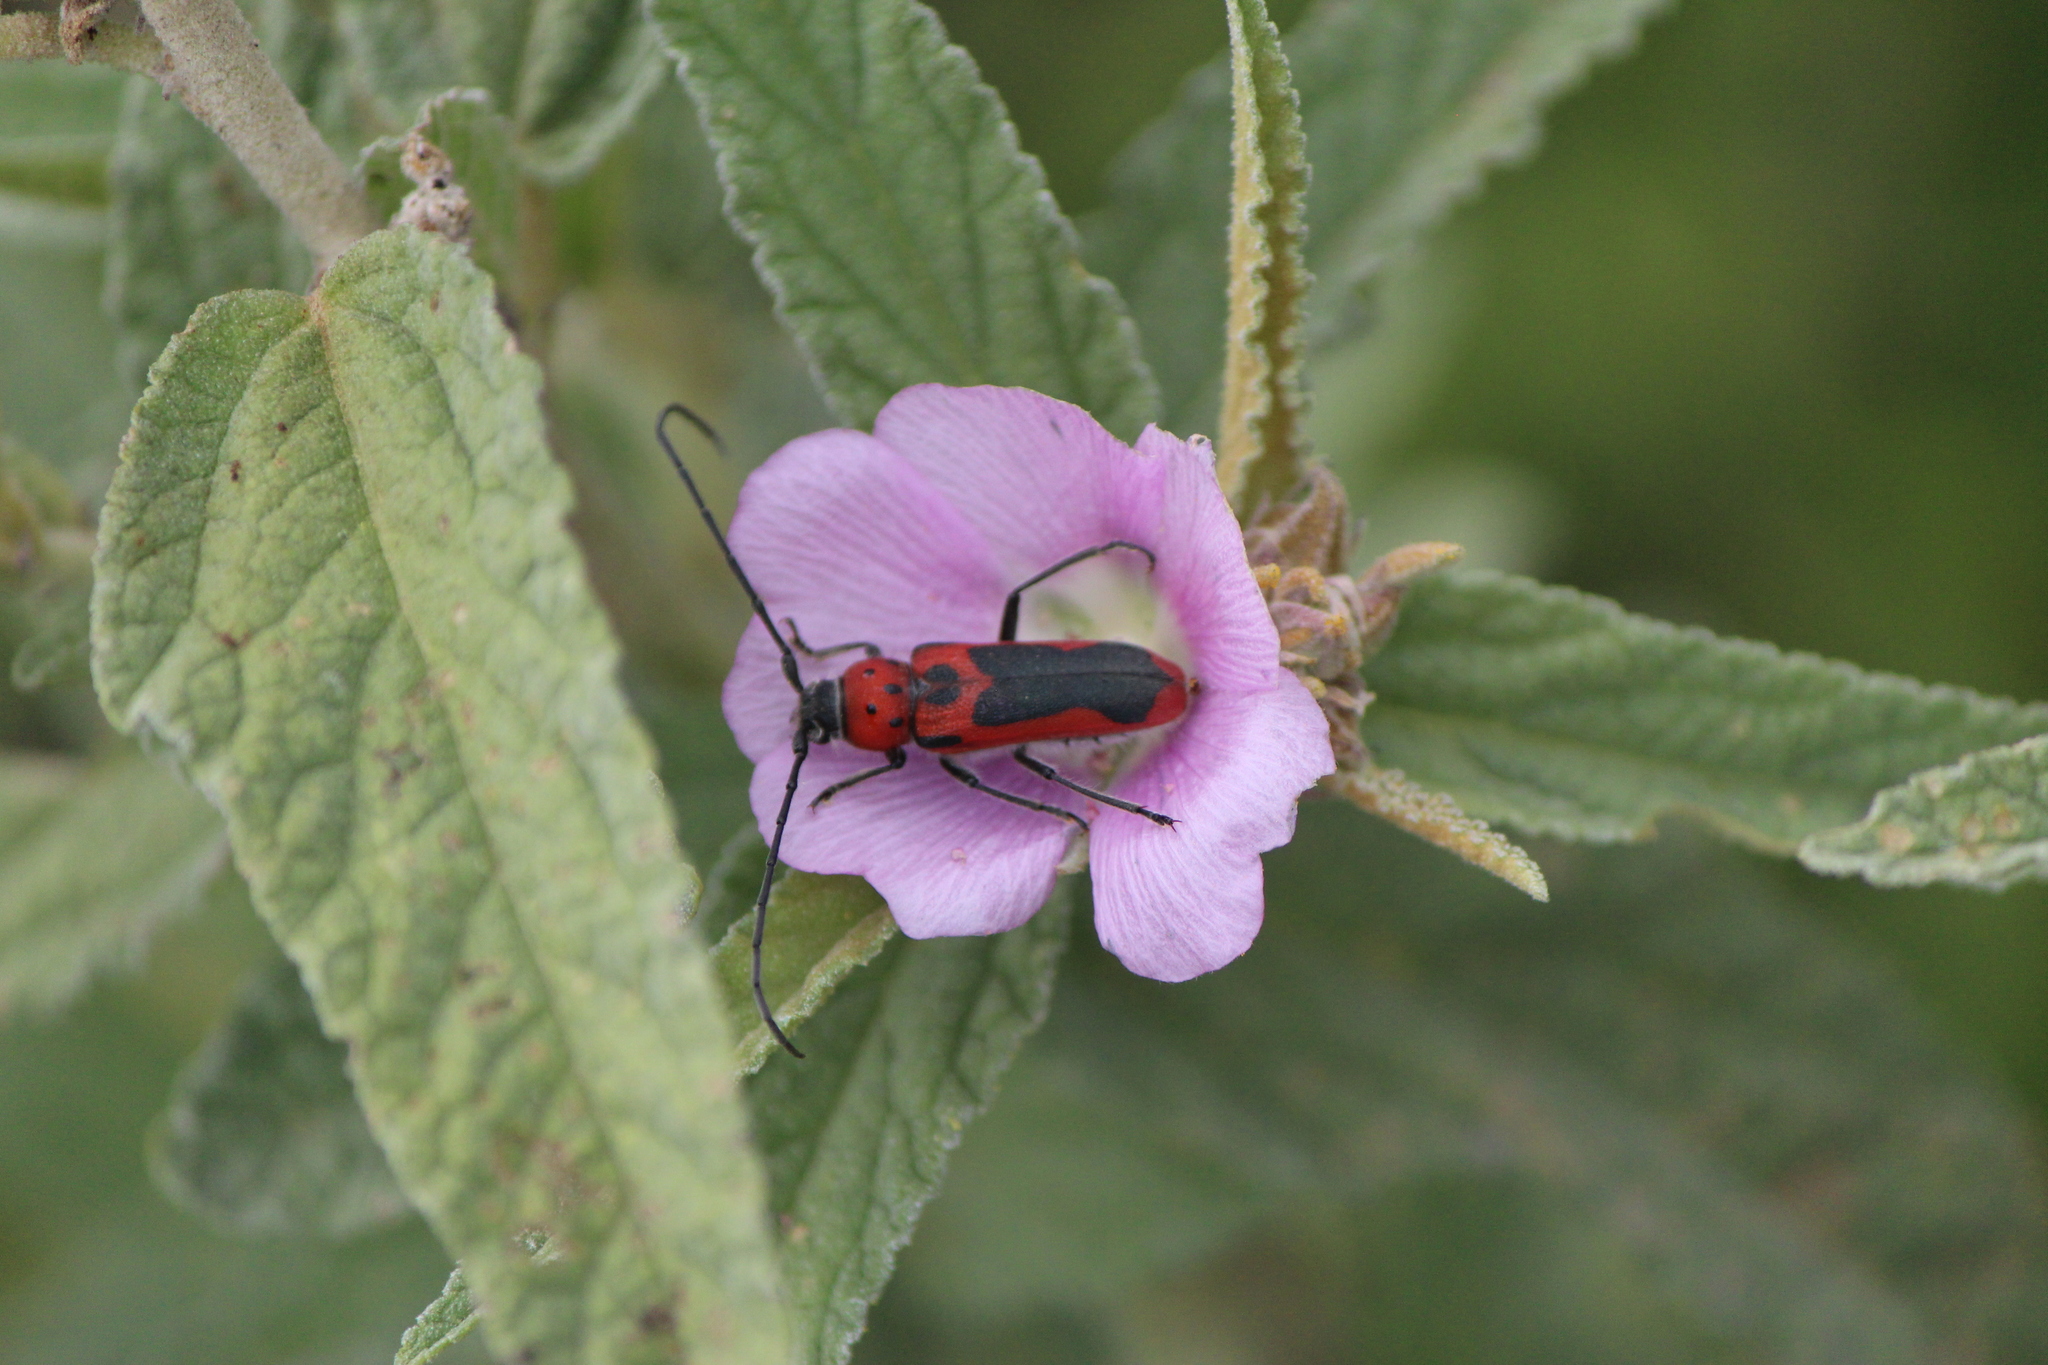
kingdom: Animalia
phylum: Arthropoda
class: Insecta
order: Coleoptera
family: Cerambycidae
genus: Tylosis
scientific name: Tylosis maculatus
